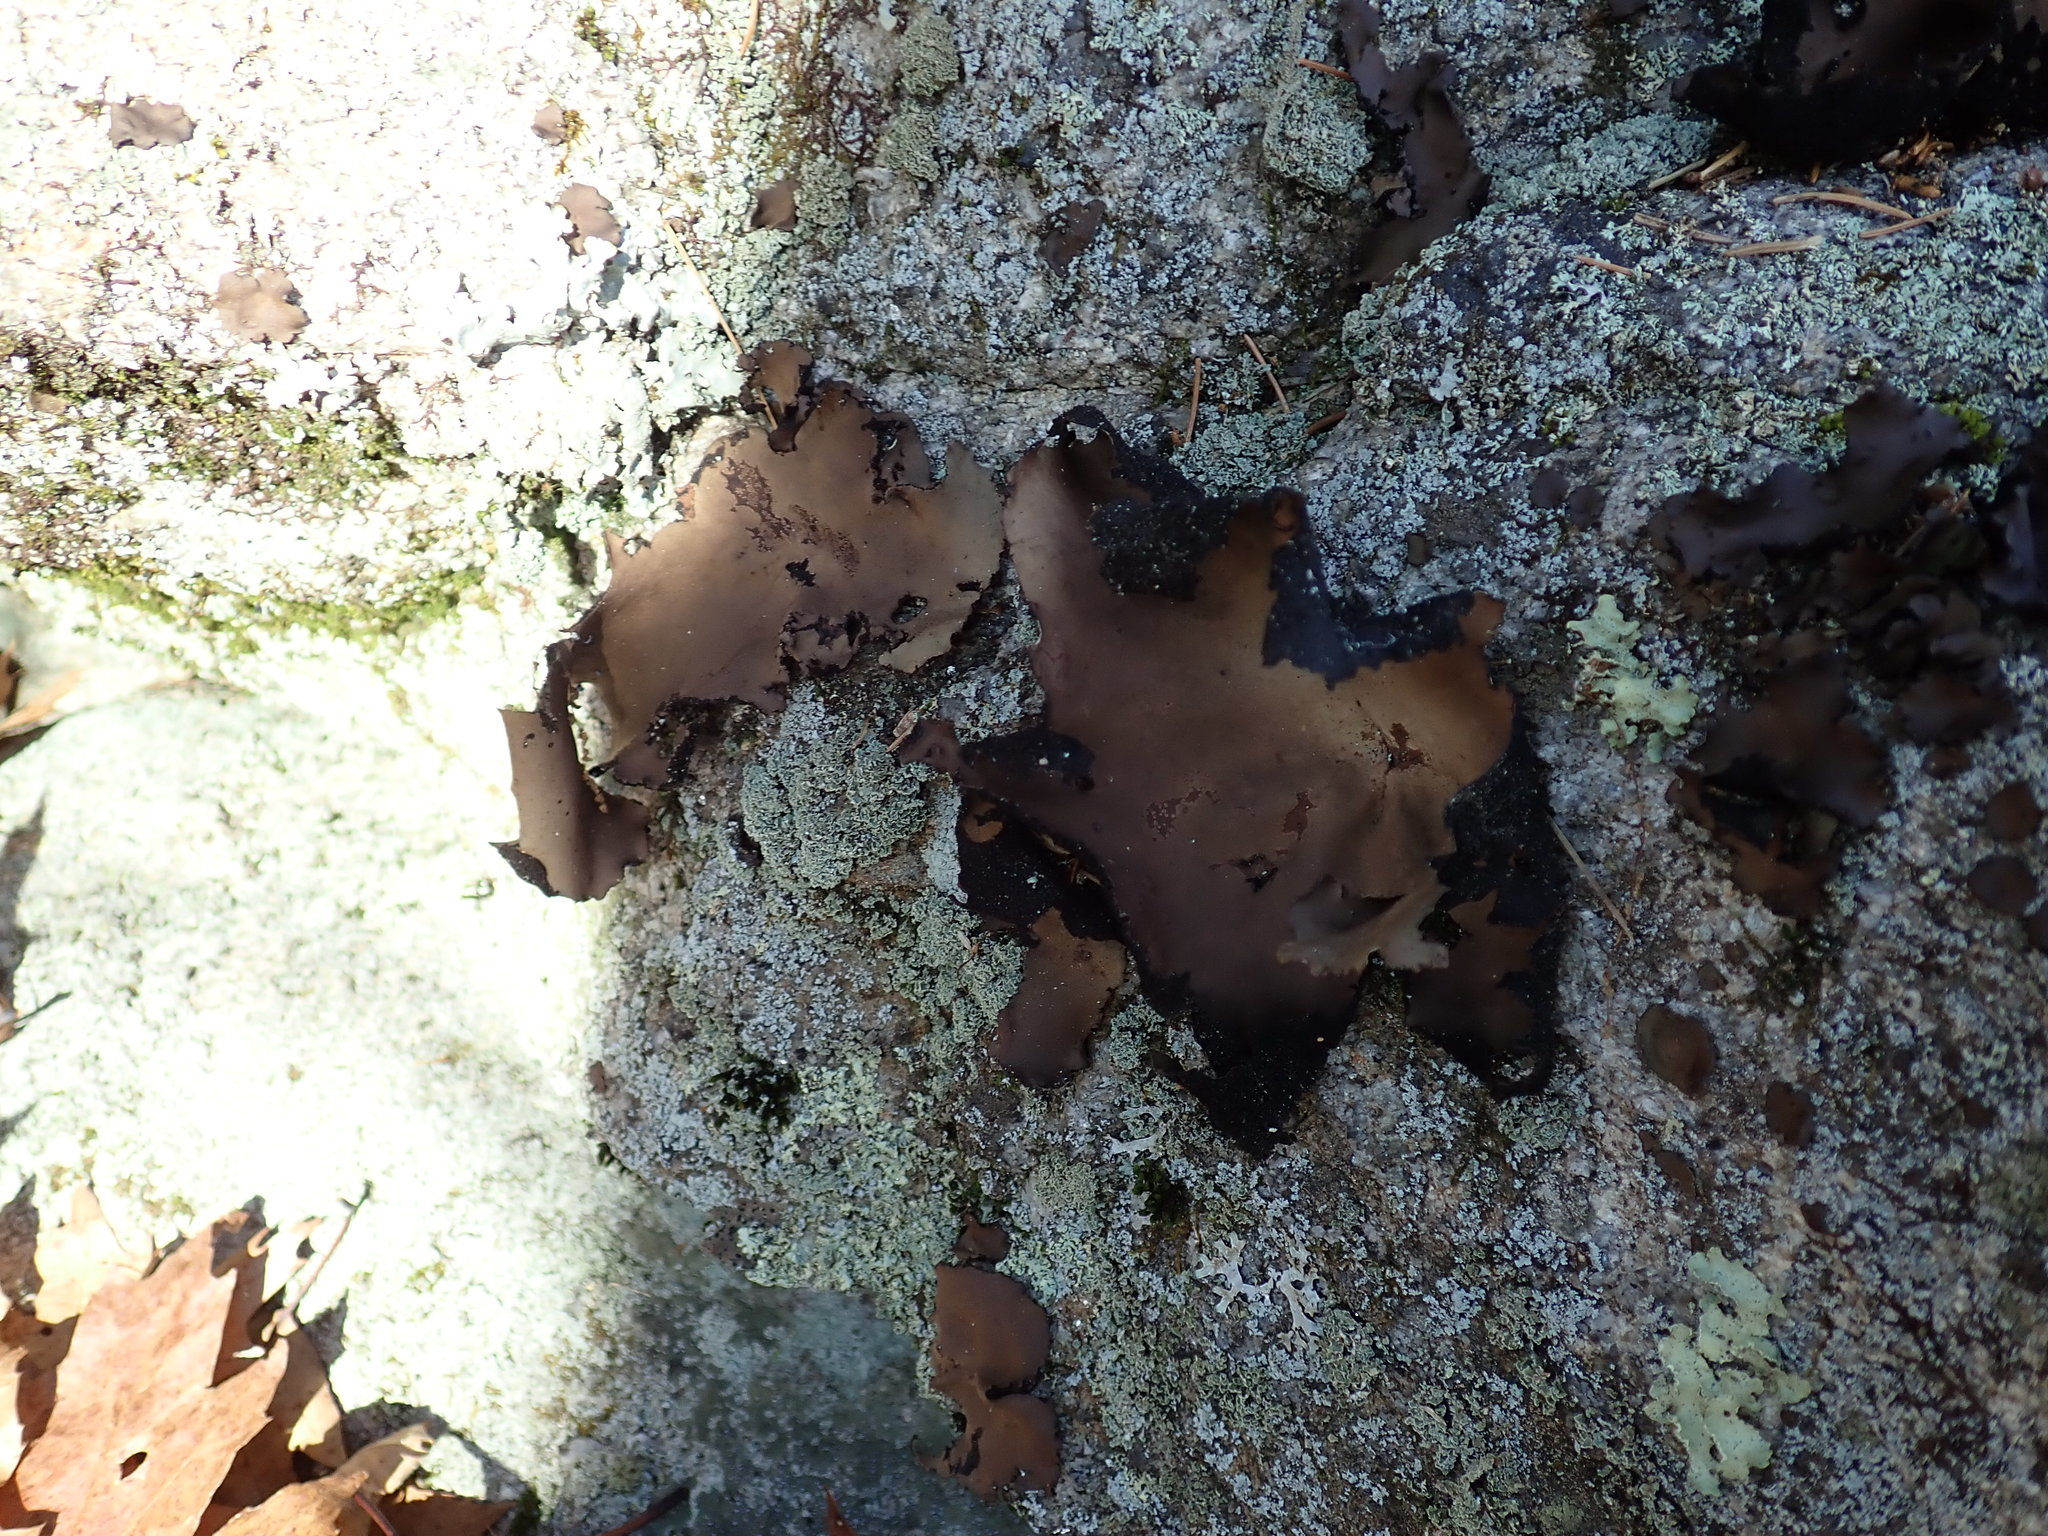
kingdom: Fungi
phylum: Ascomycota
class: Lecanoromycetes
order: Umbilicariales
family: Umbilicariaceae
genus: Umbilicaria
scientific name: Umbilicaria mammulata
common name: Smooth rock tripe
